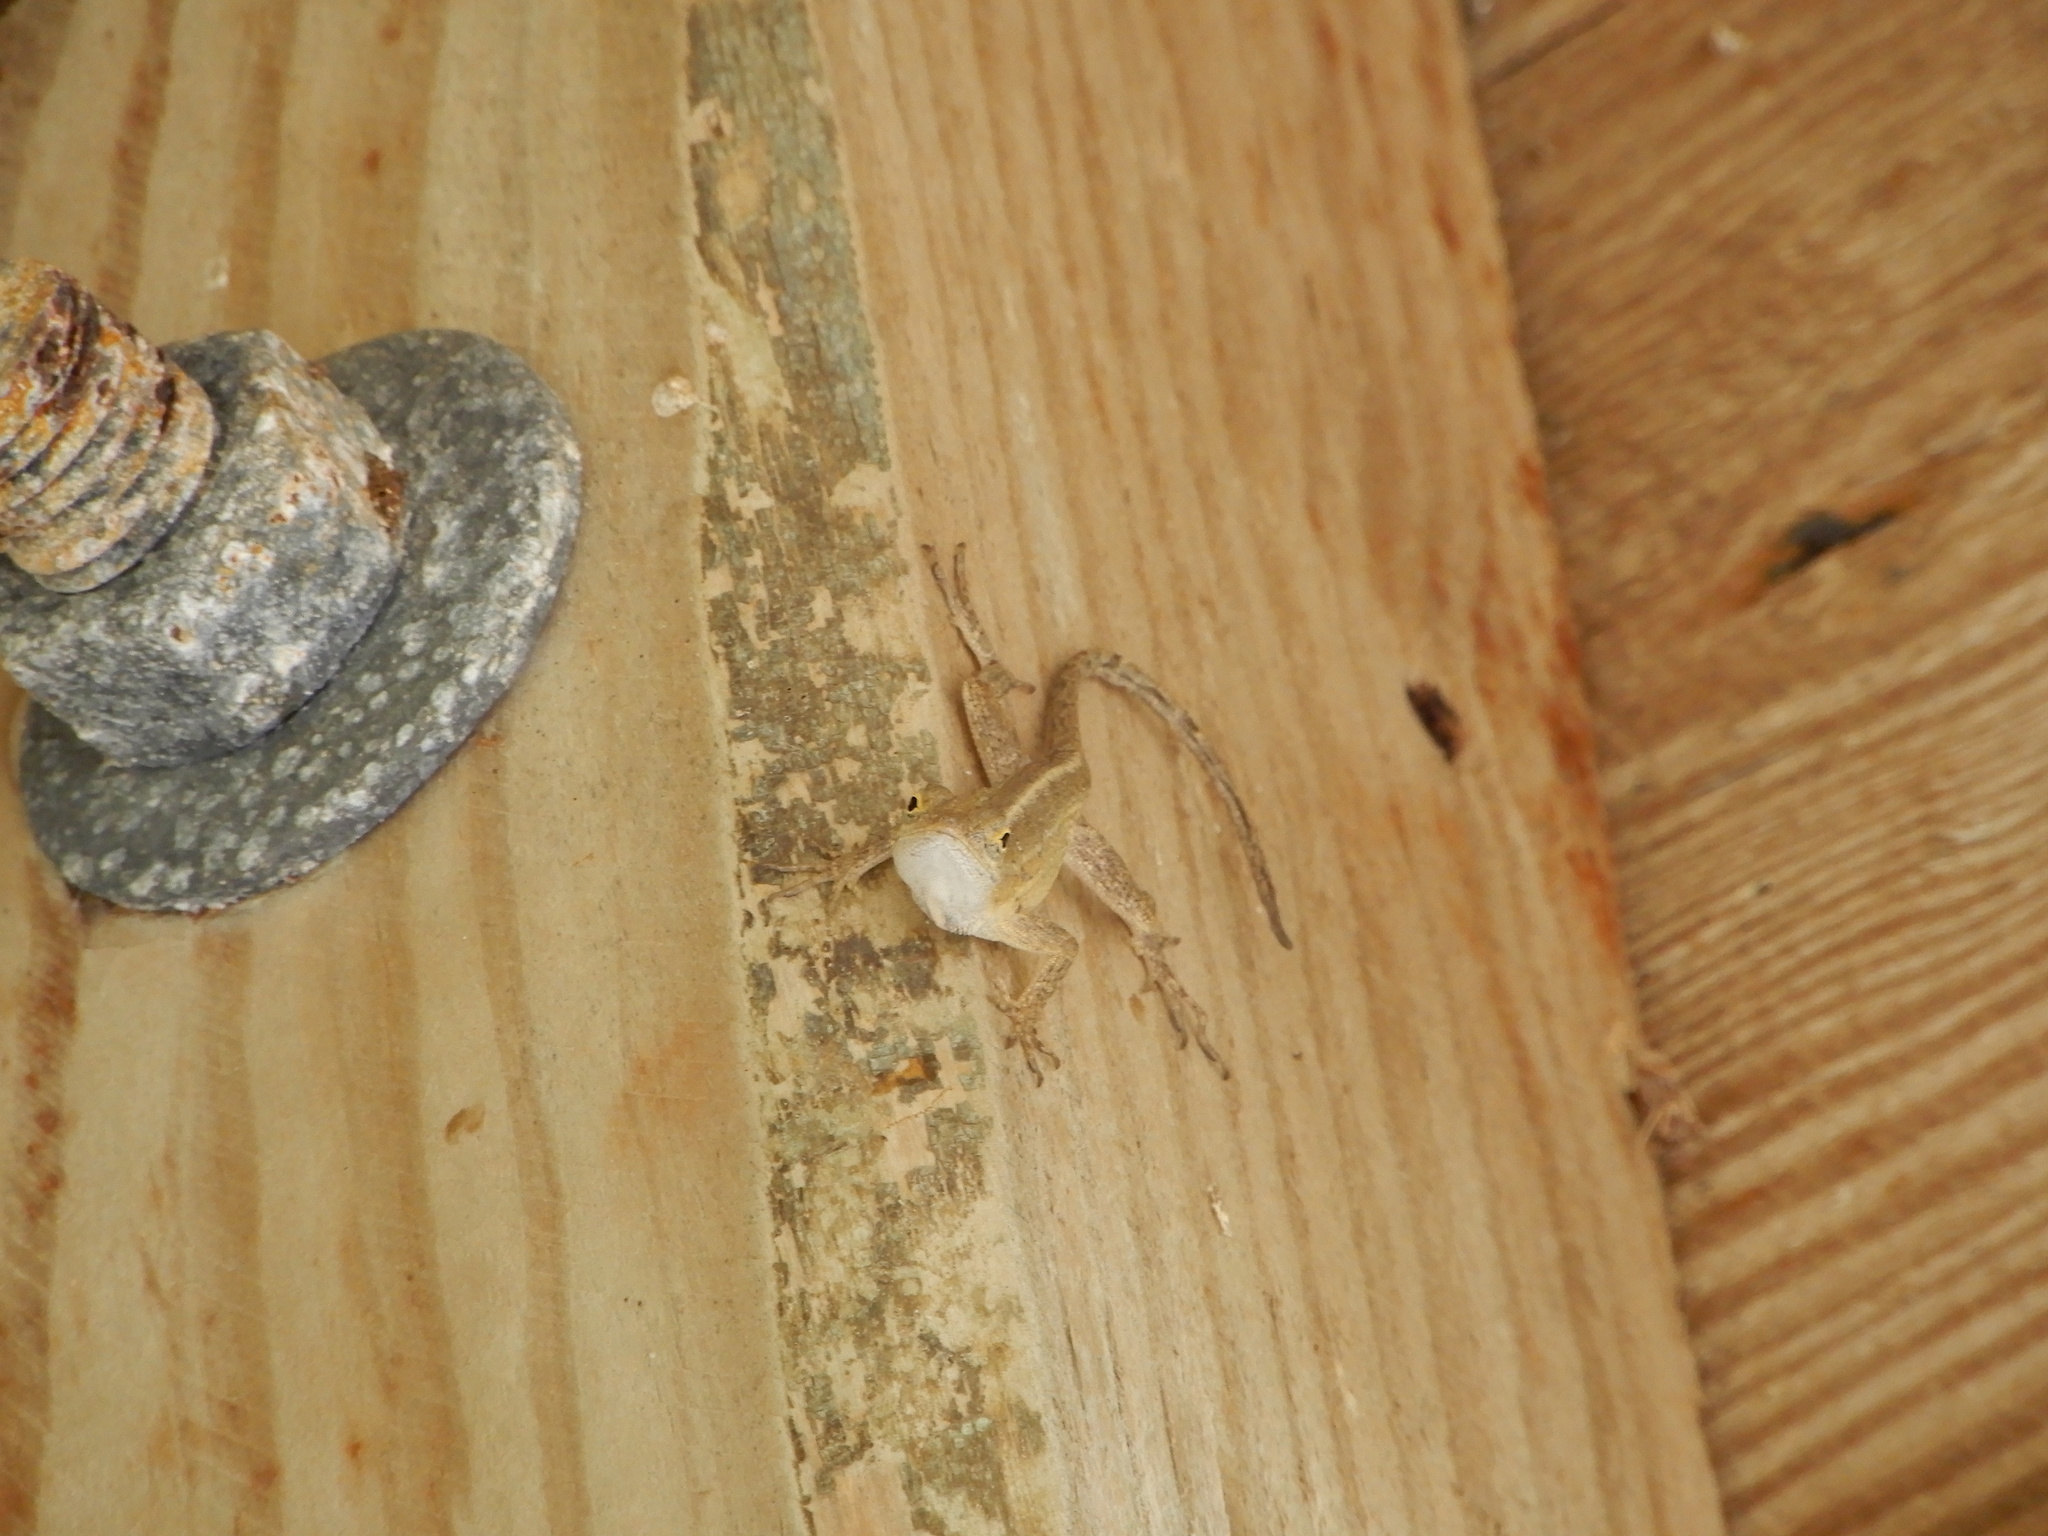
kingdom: Animalia
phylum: Chordata
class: Squamata
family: Dactyloidae
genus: Anolis
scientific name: Anolis sagrei
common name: Brown anole
